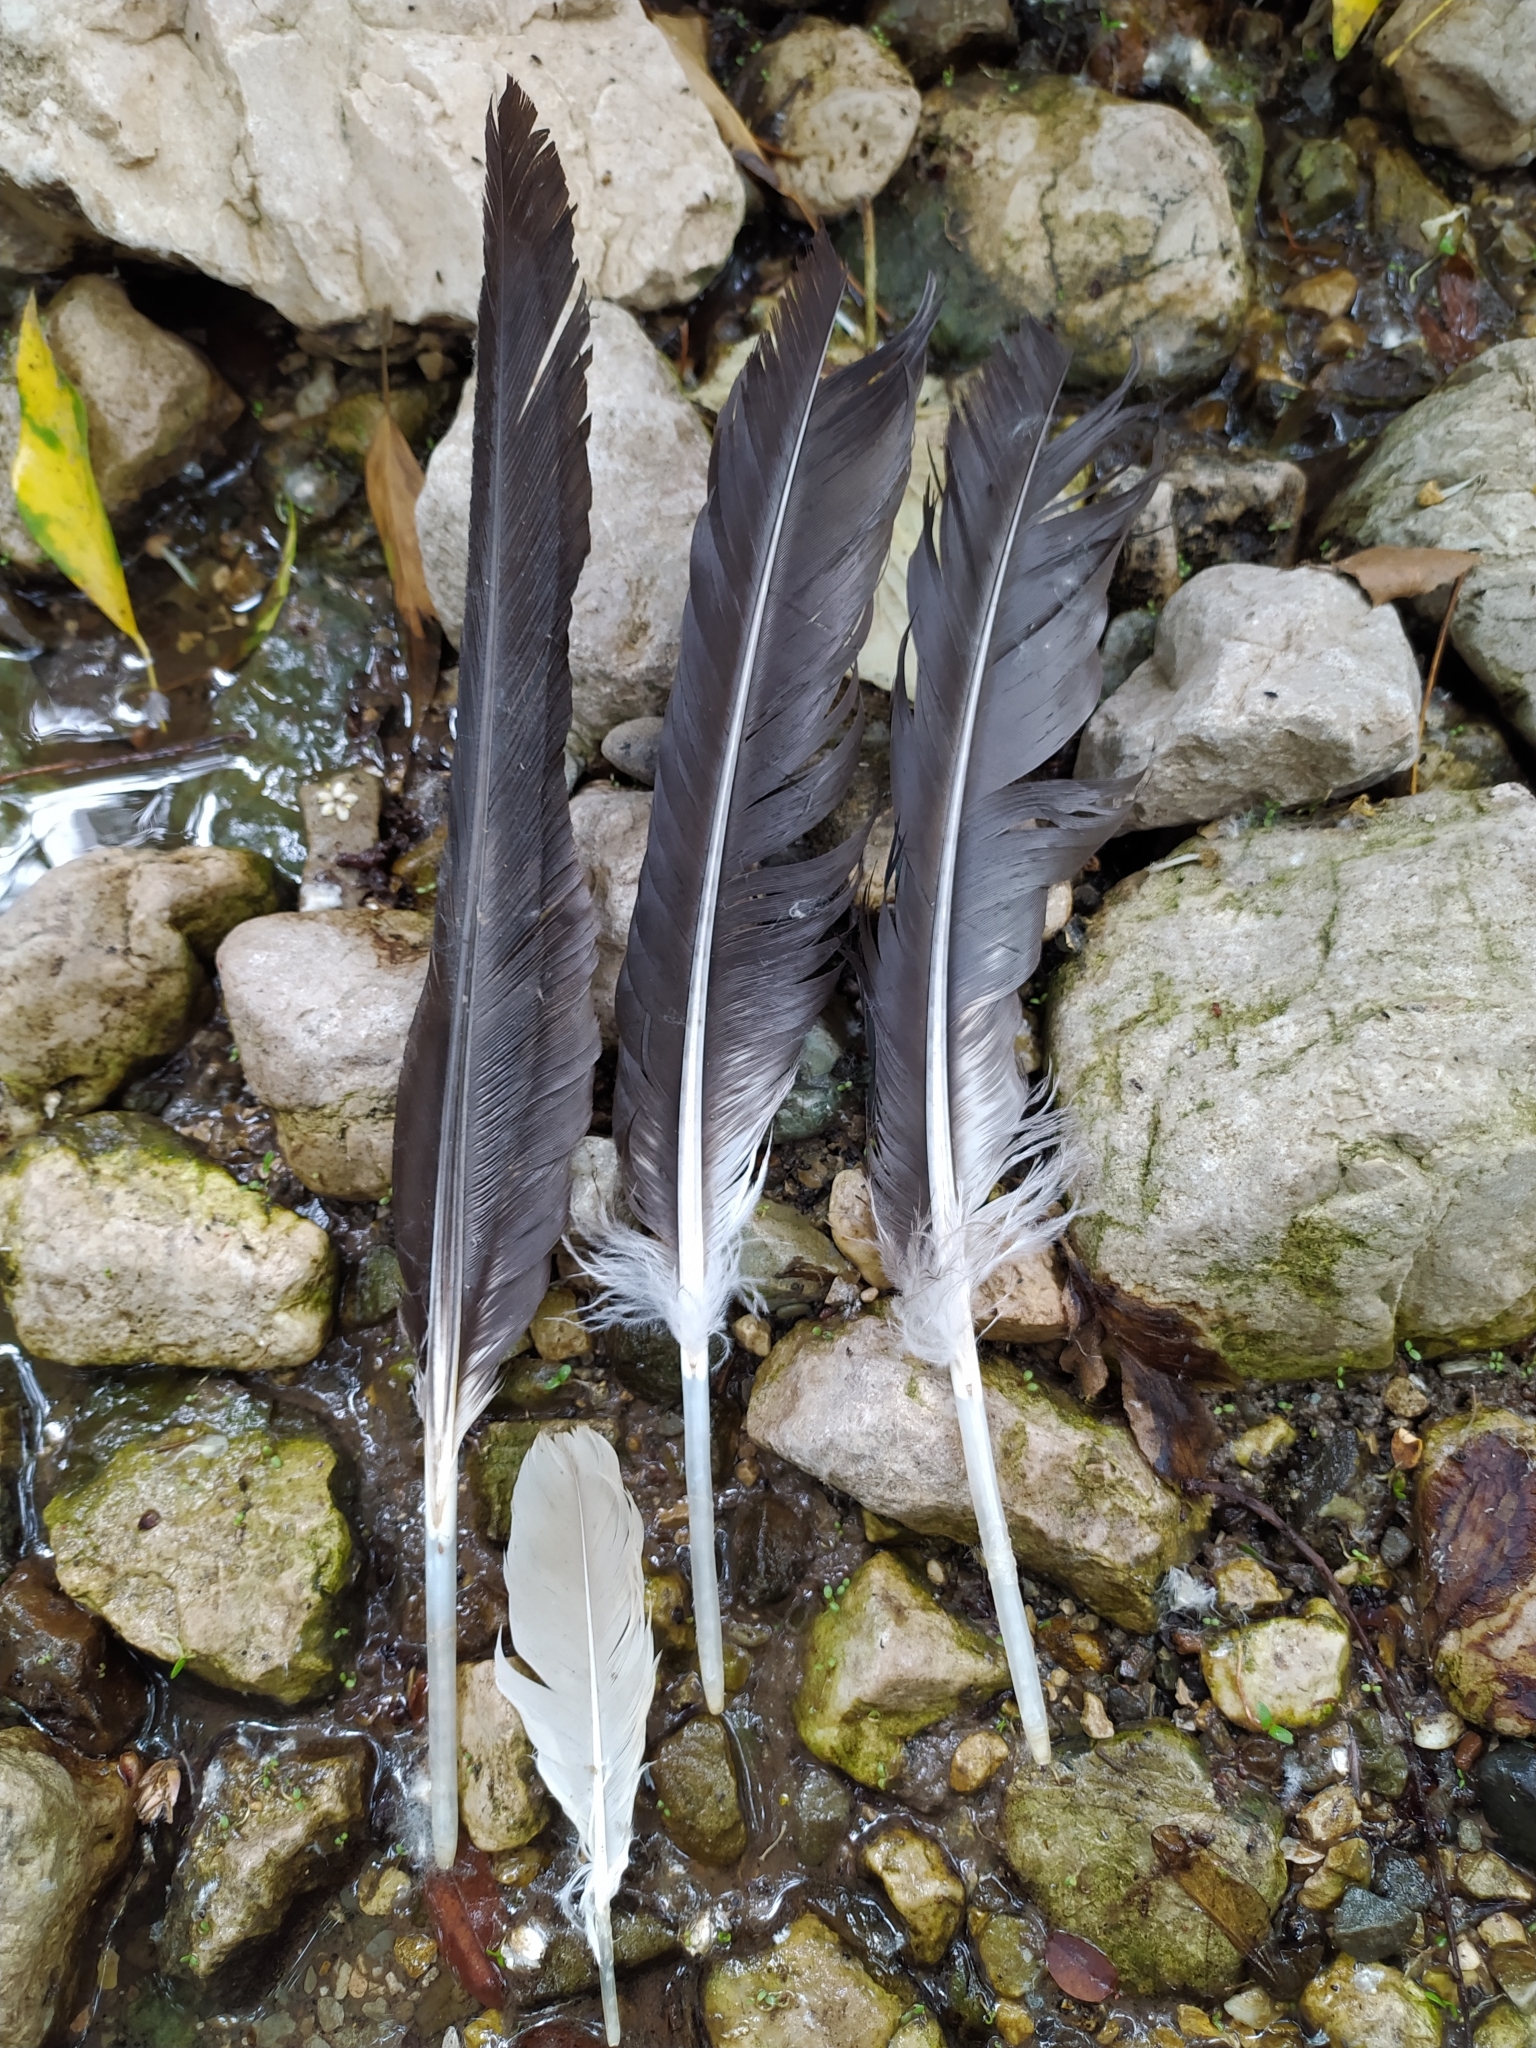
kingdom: Animalia
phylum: Chordata
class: Aves
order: Anseriformes
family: Anatidae
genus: Cairina
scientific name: Cairina moschata
